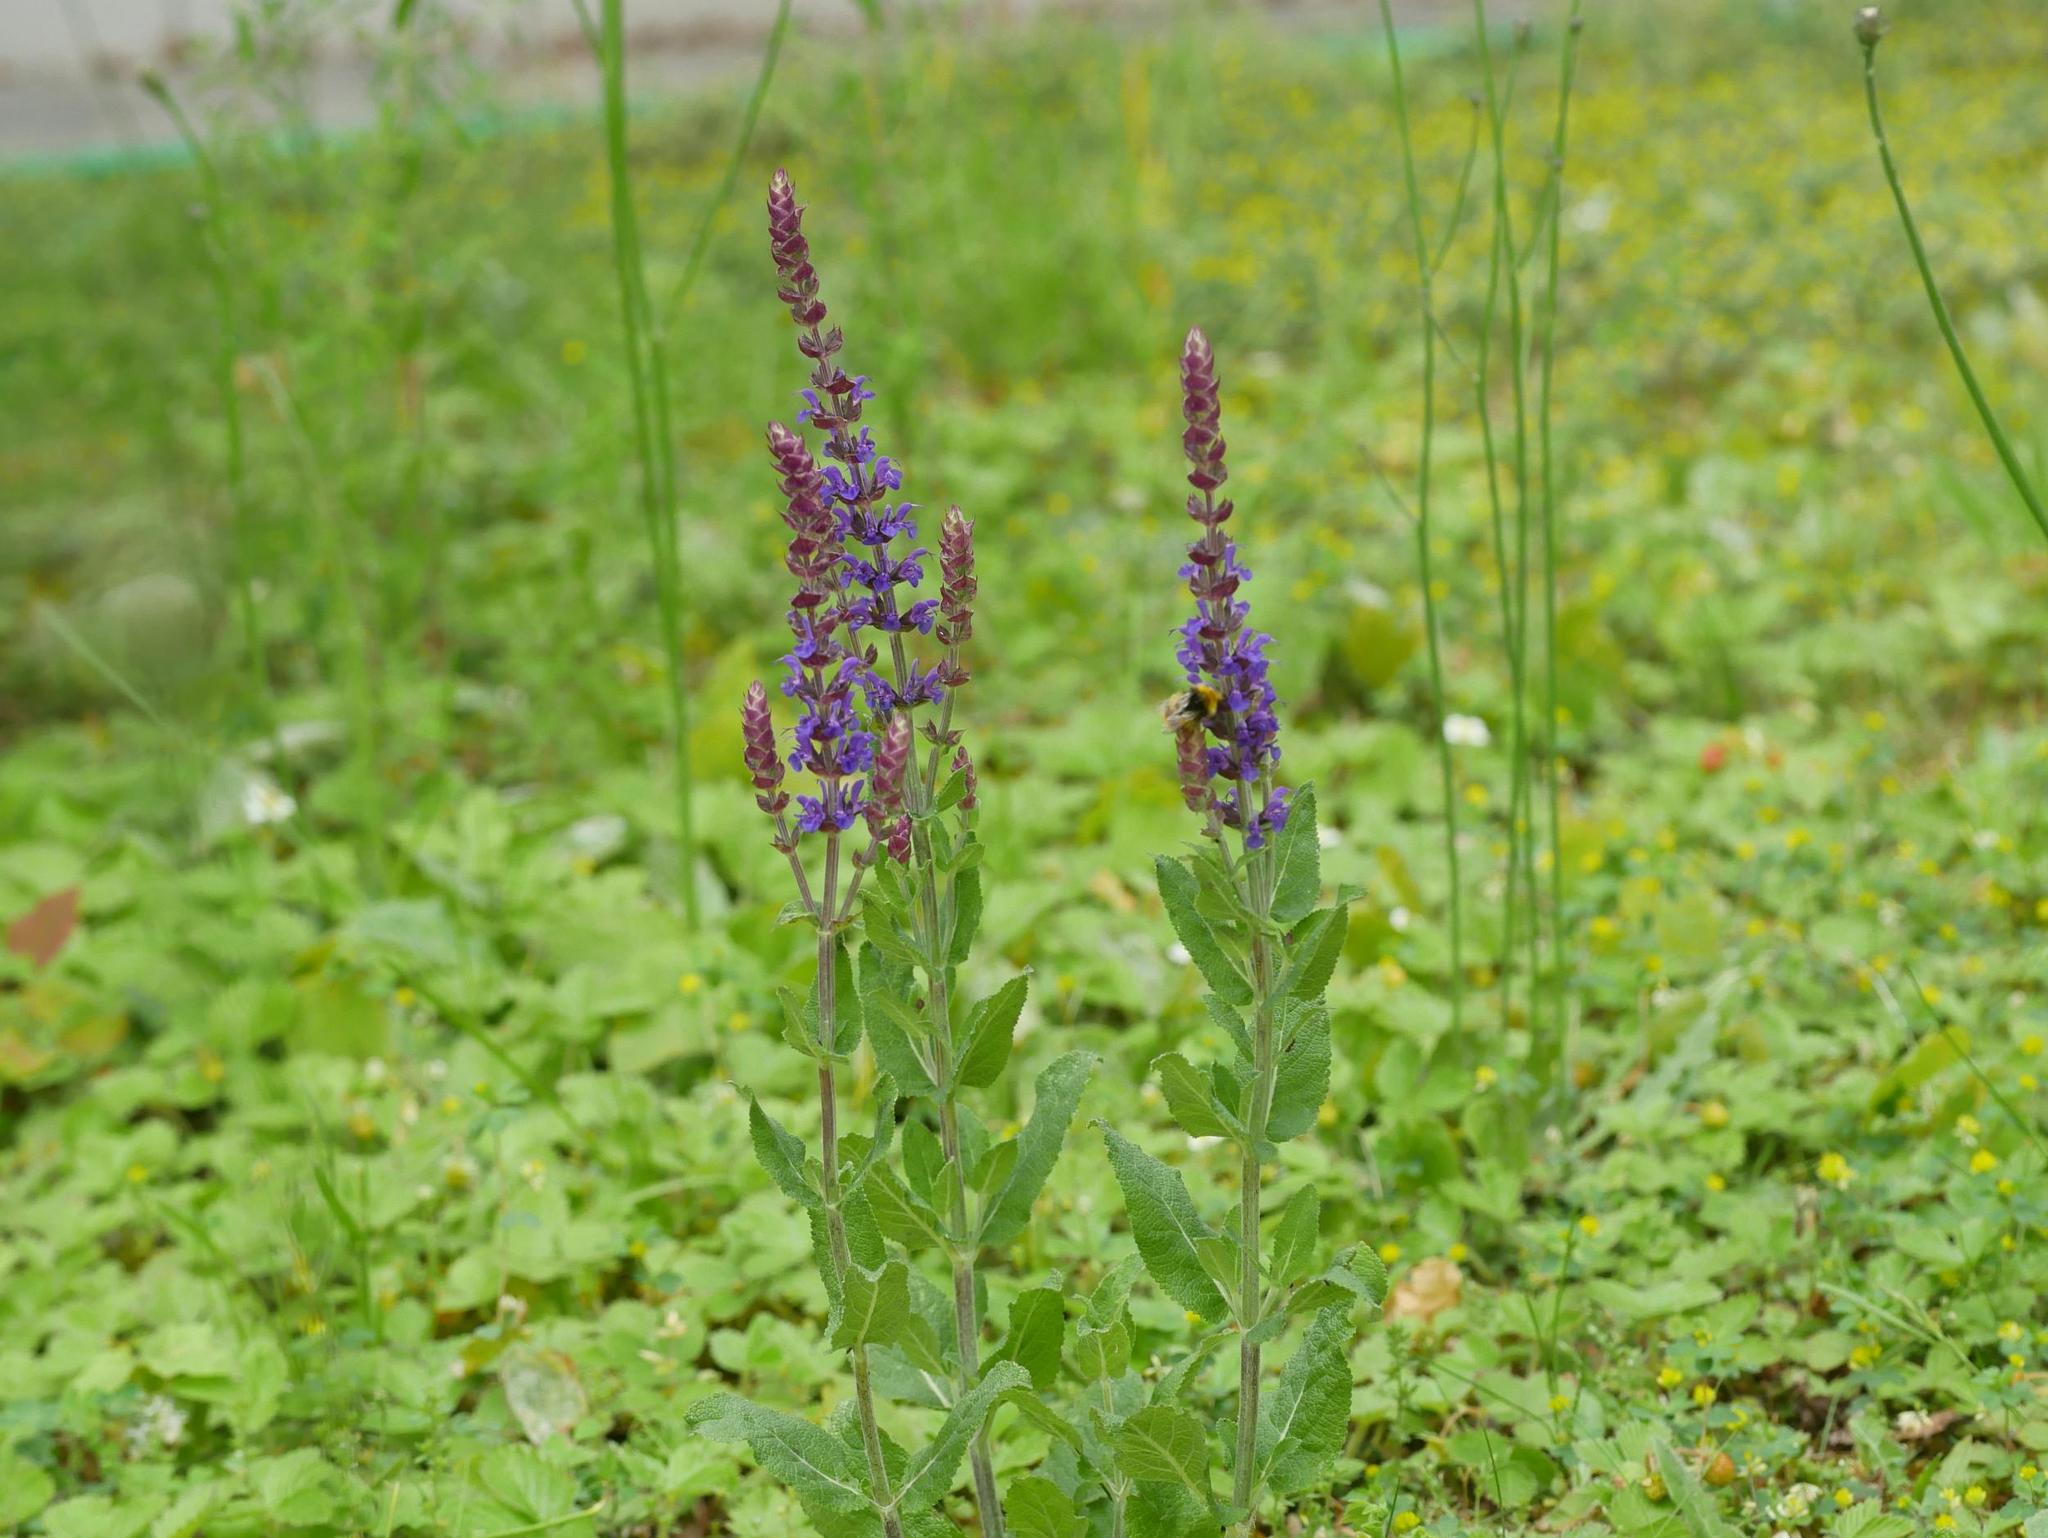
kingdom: Plantae
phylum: Tracheophyta
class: Magnoliopsida
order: Lamiales
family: Lamiaceae
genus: Salvia
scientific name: Salvia nemorosa
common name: Balkan clary
